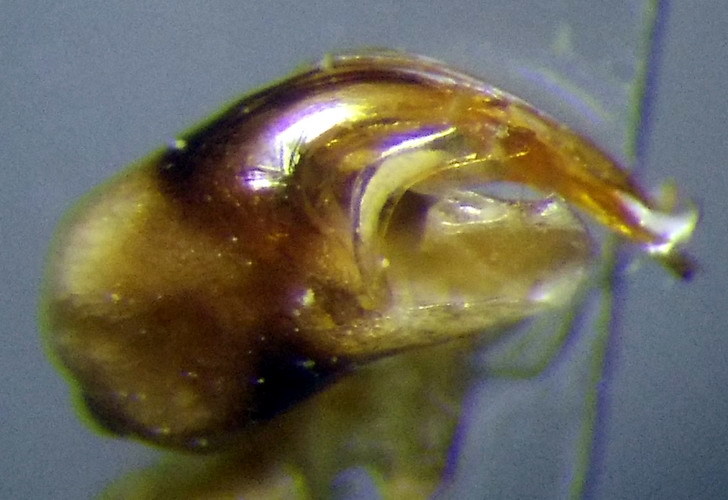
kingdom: Animalia
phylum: Arthropoda
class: Insecta
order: Hemiptera
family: Corixidae
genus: Hesperocorixa
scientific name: Hesperocorixa linnaei
